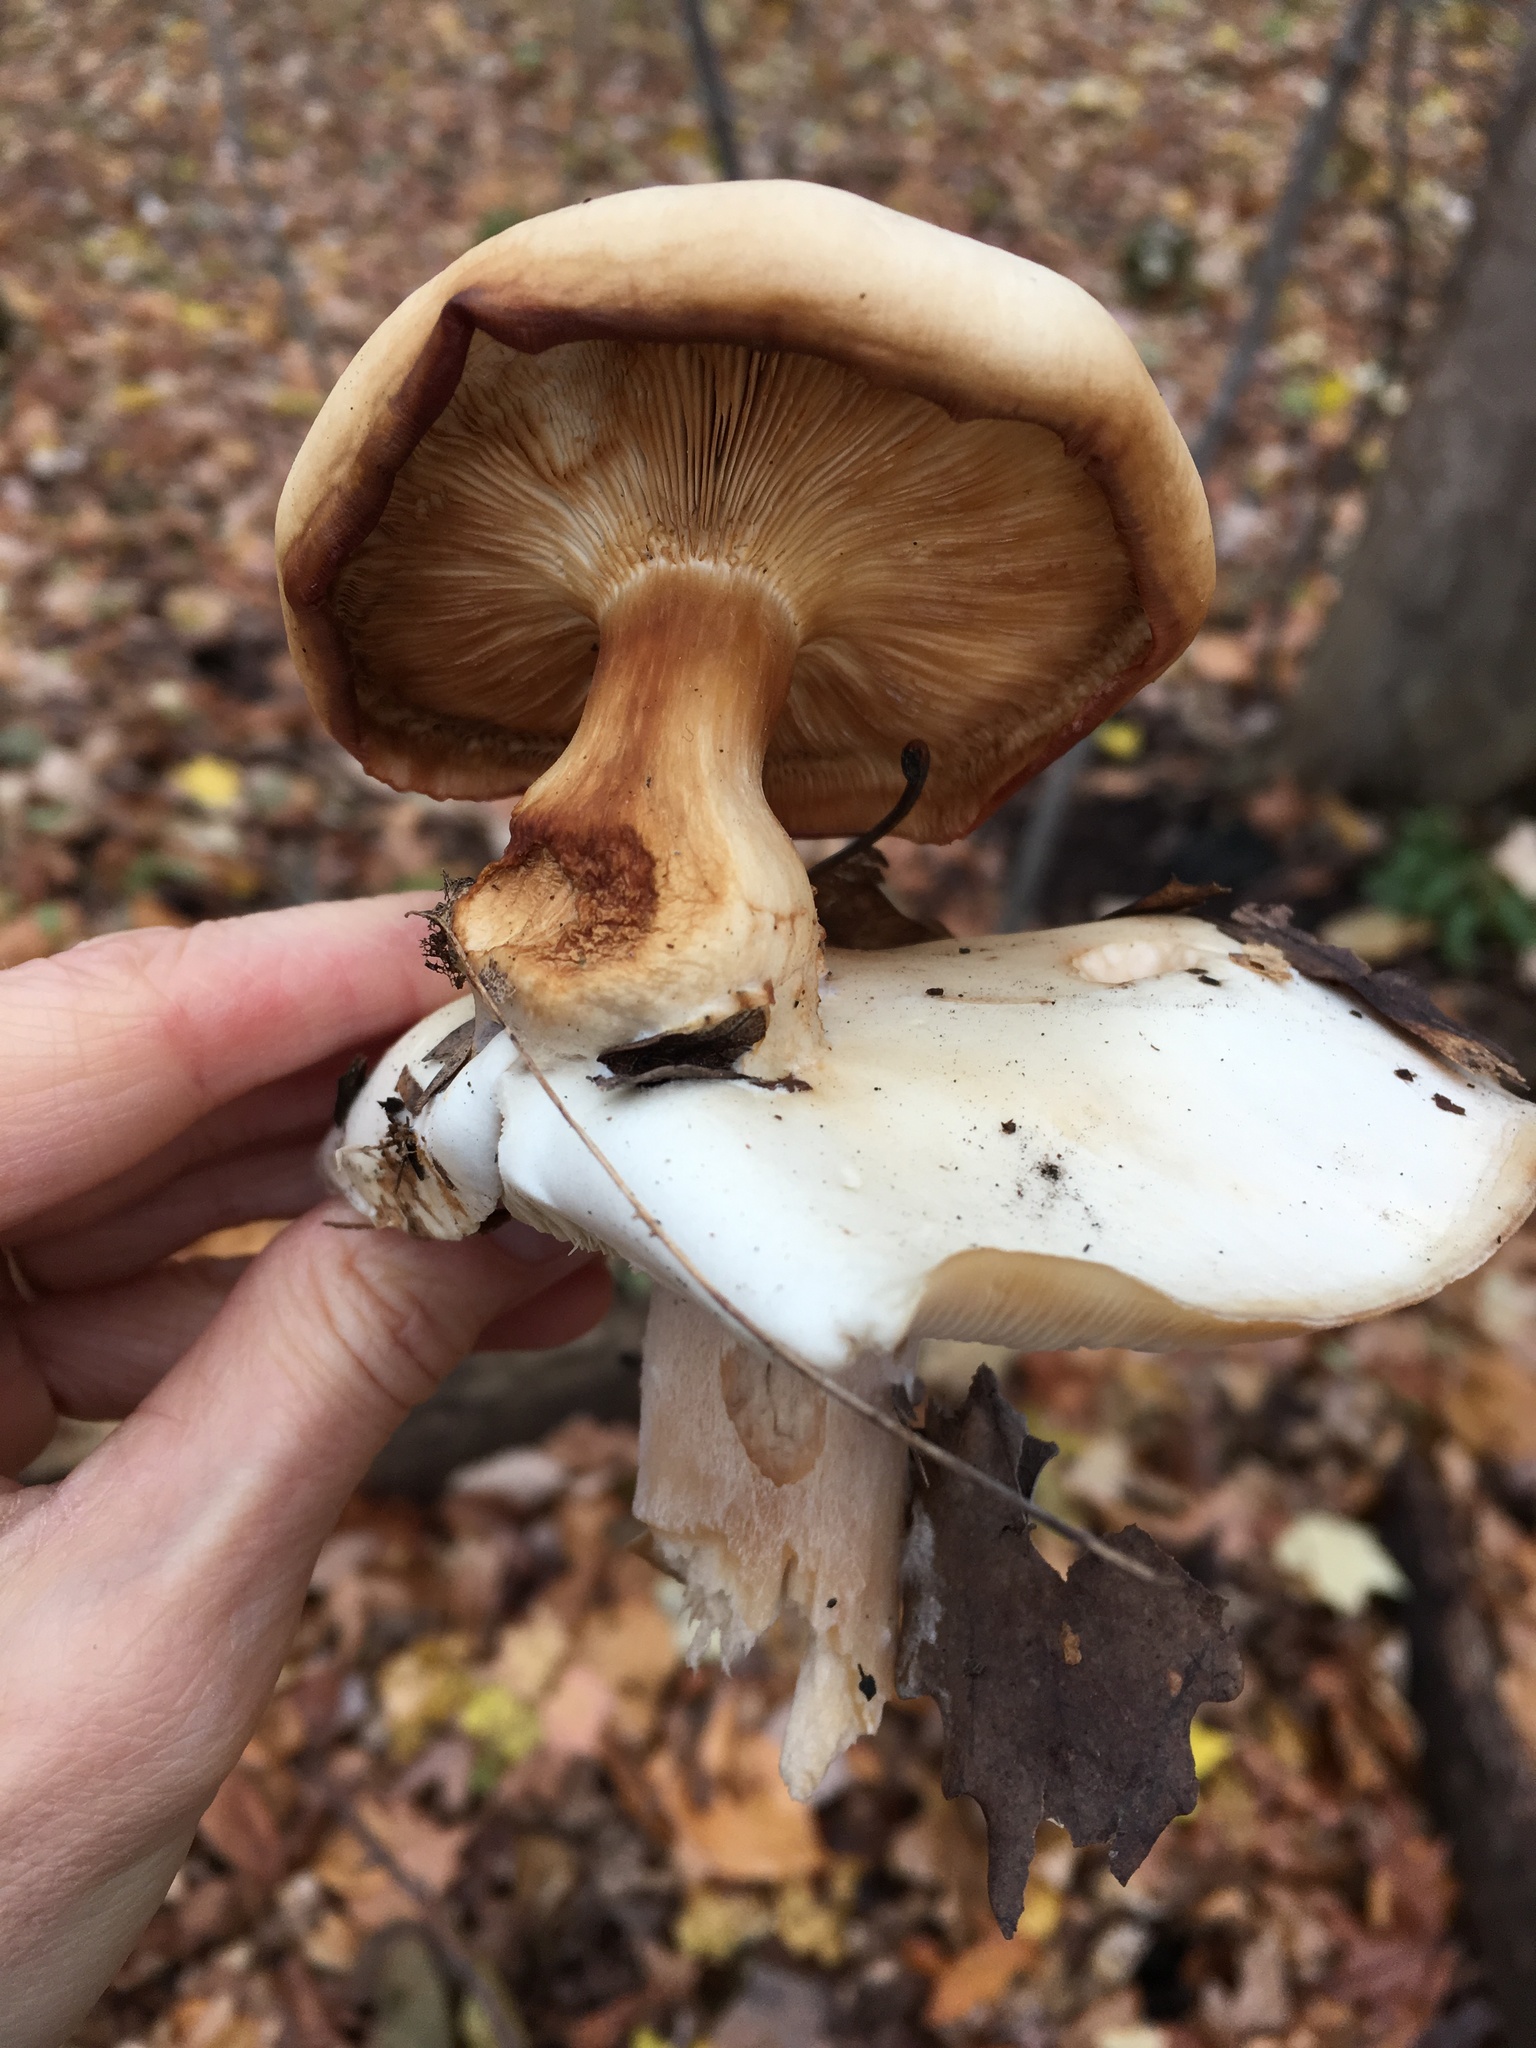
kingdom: Fungi
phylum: Basidiomycota
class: Agaricomycetes
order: Agaricales
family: Tricholomataceae
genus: Clitocybe
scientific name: Clitocybe robusta
